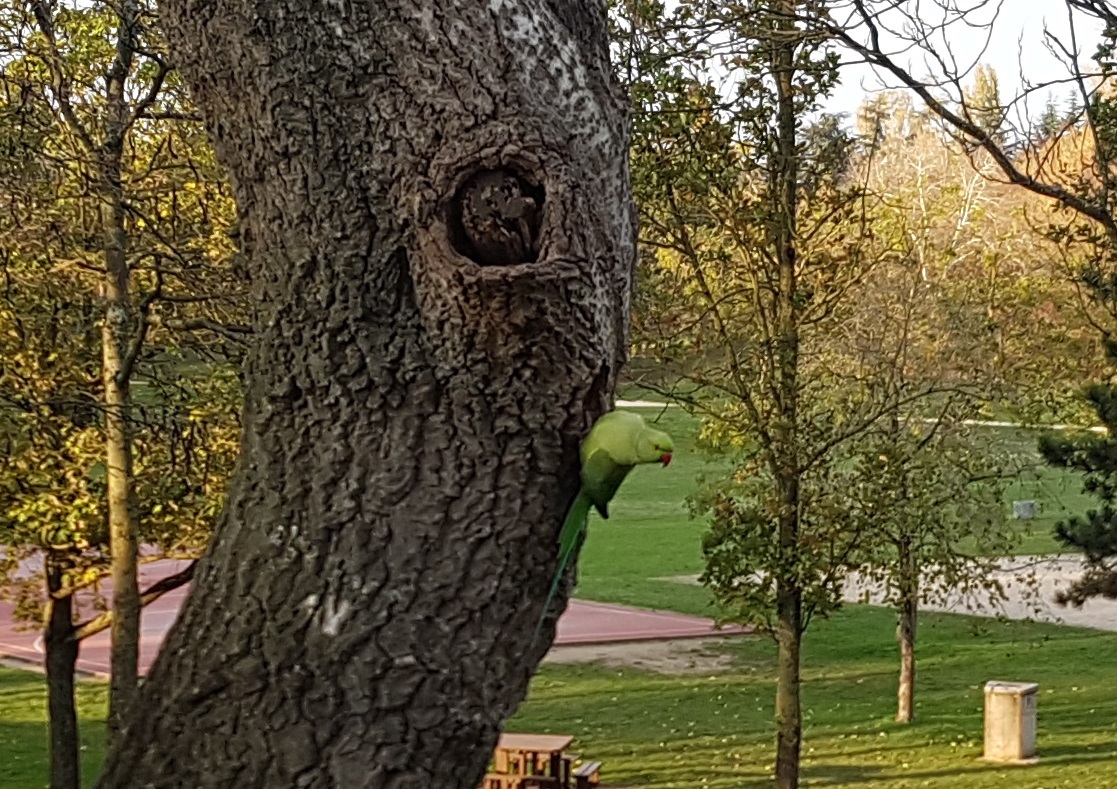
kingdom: Animalia
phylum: Chordata
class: Aves
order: Psittaciformes
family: Psittacidae
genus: Psittacula
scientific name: Psittacula krameri
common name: Rose-ringed parakeet
